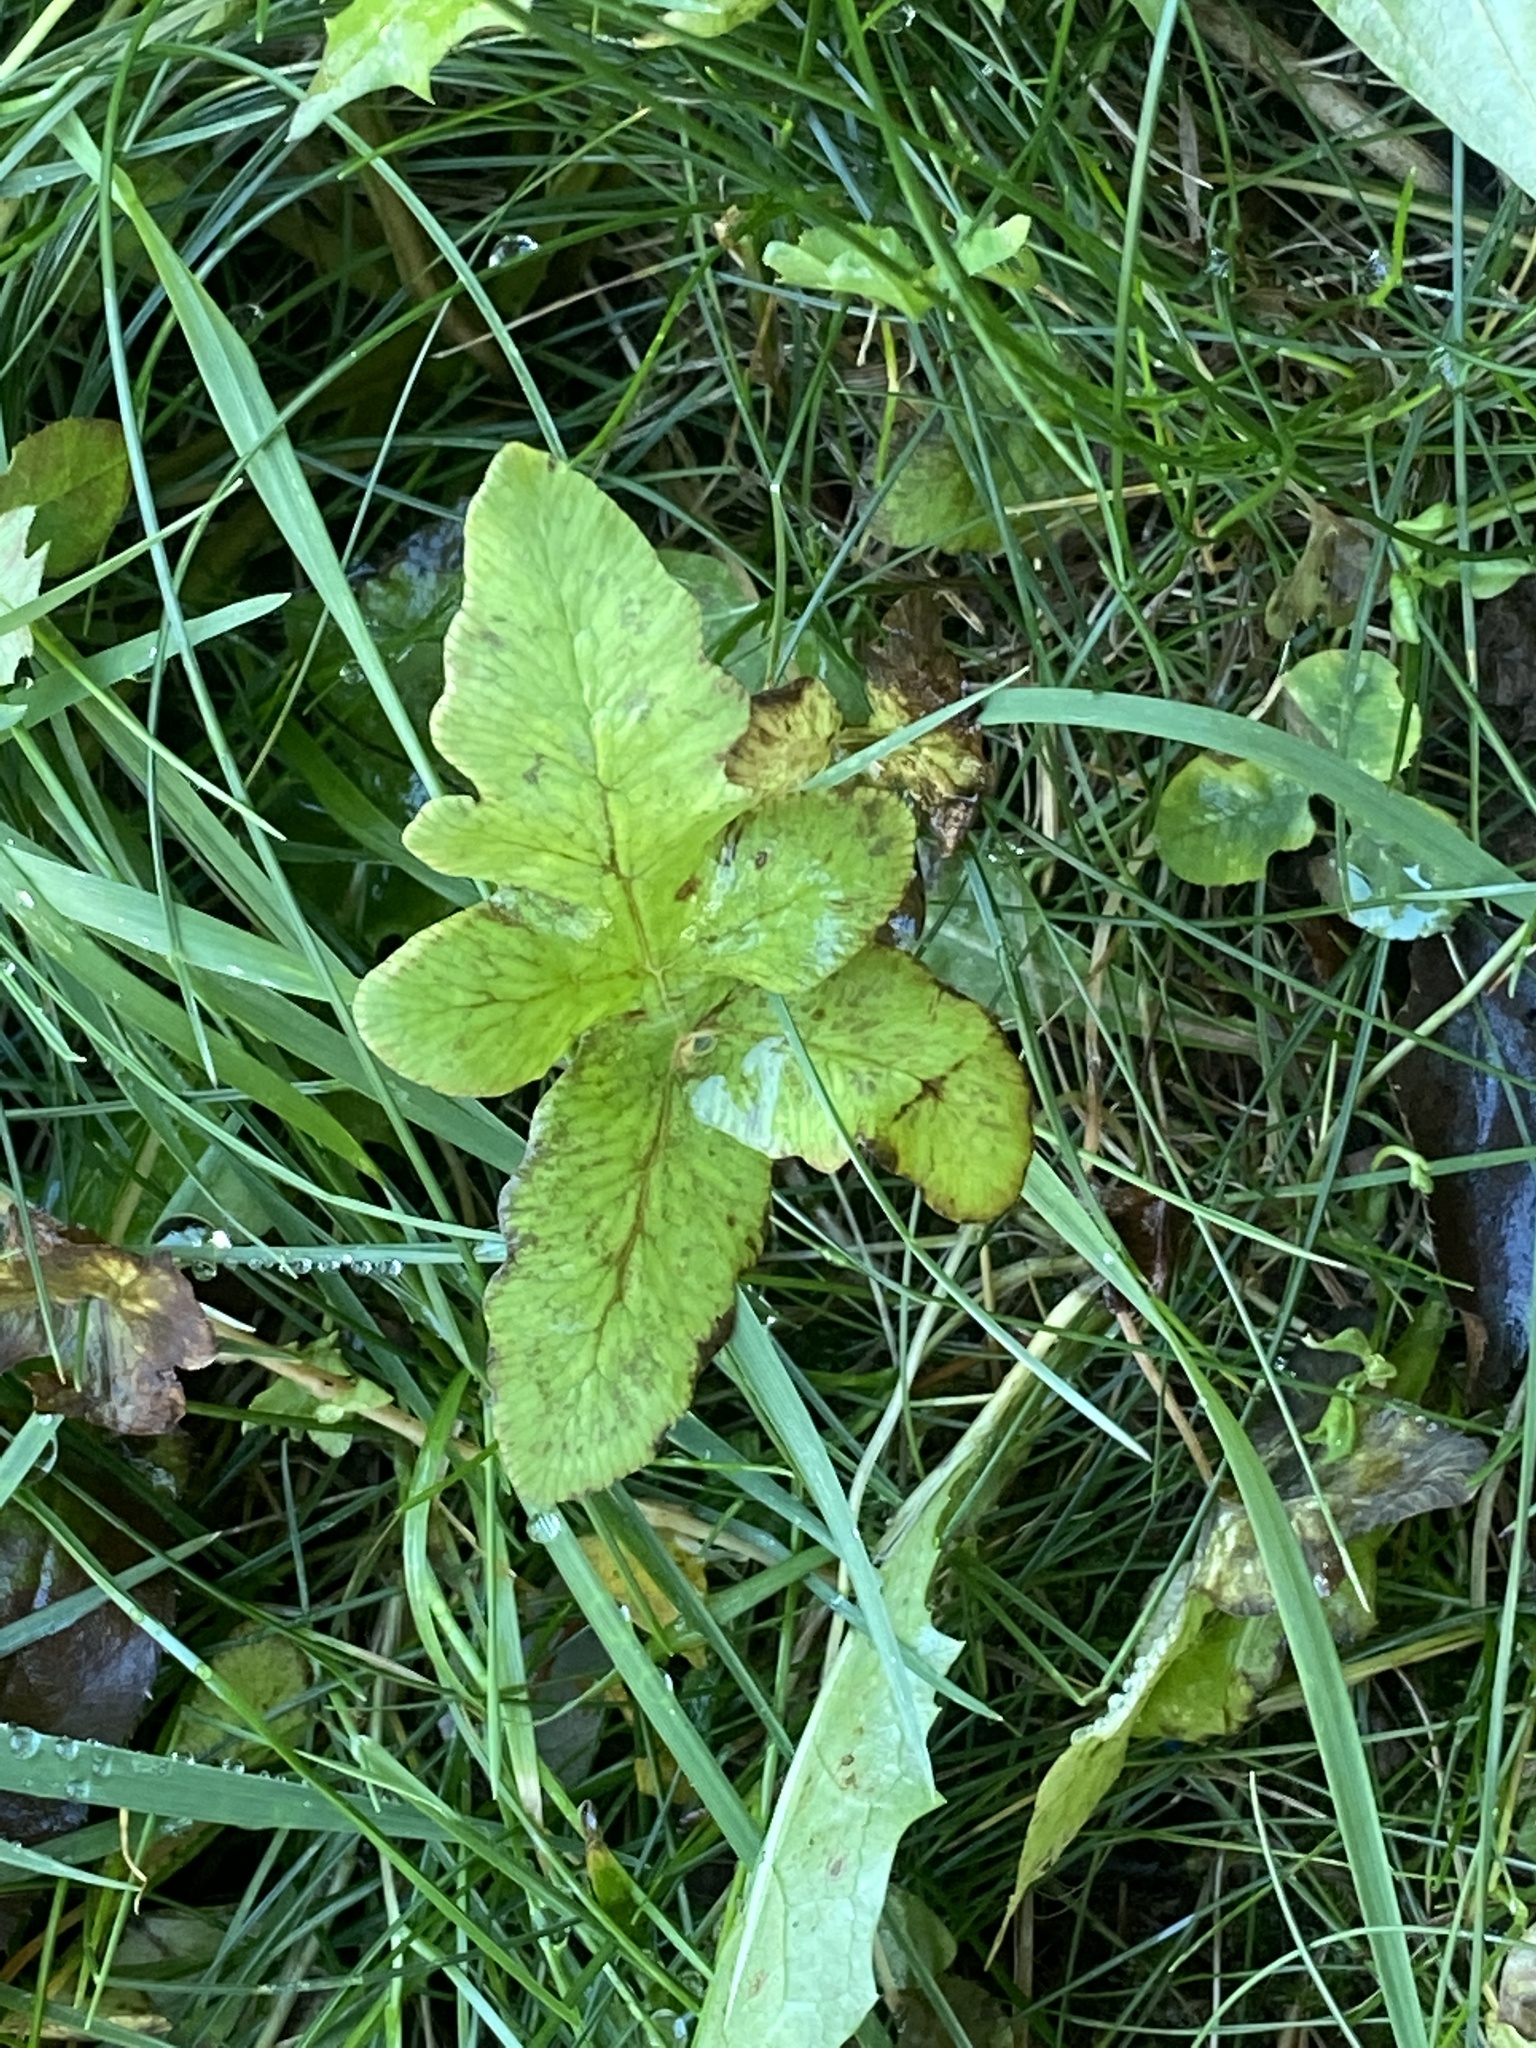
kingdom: Plantae
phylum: Tracheophyta
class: Polypodiopsida
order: Polypodiales
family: Onocleaceae
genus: Onoclea
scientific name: Onoclea sensibilis
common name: Sensitive fern
